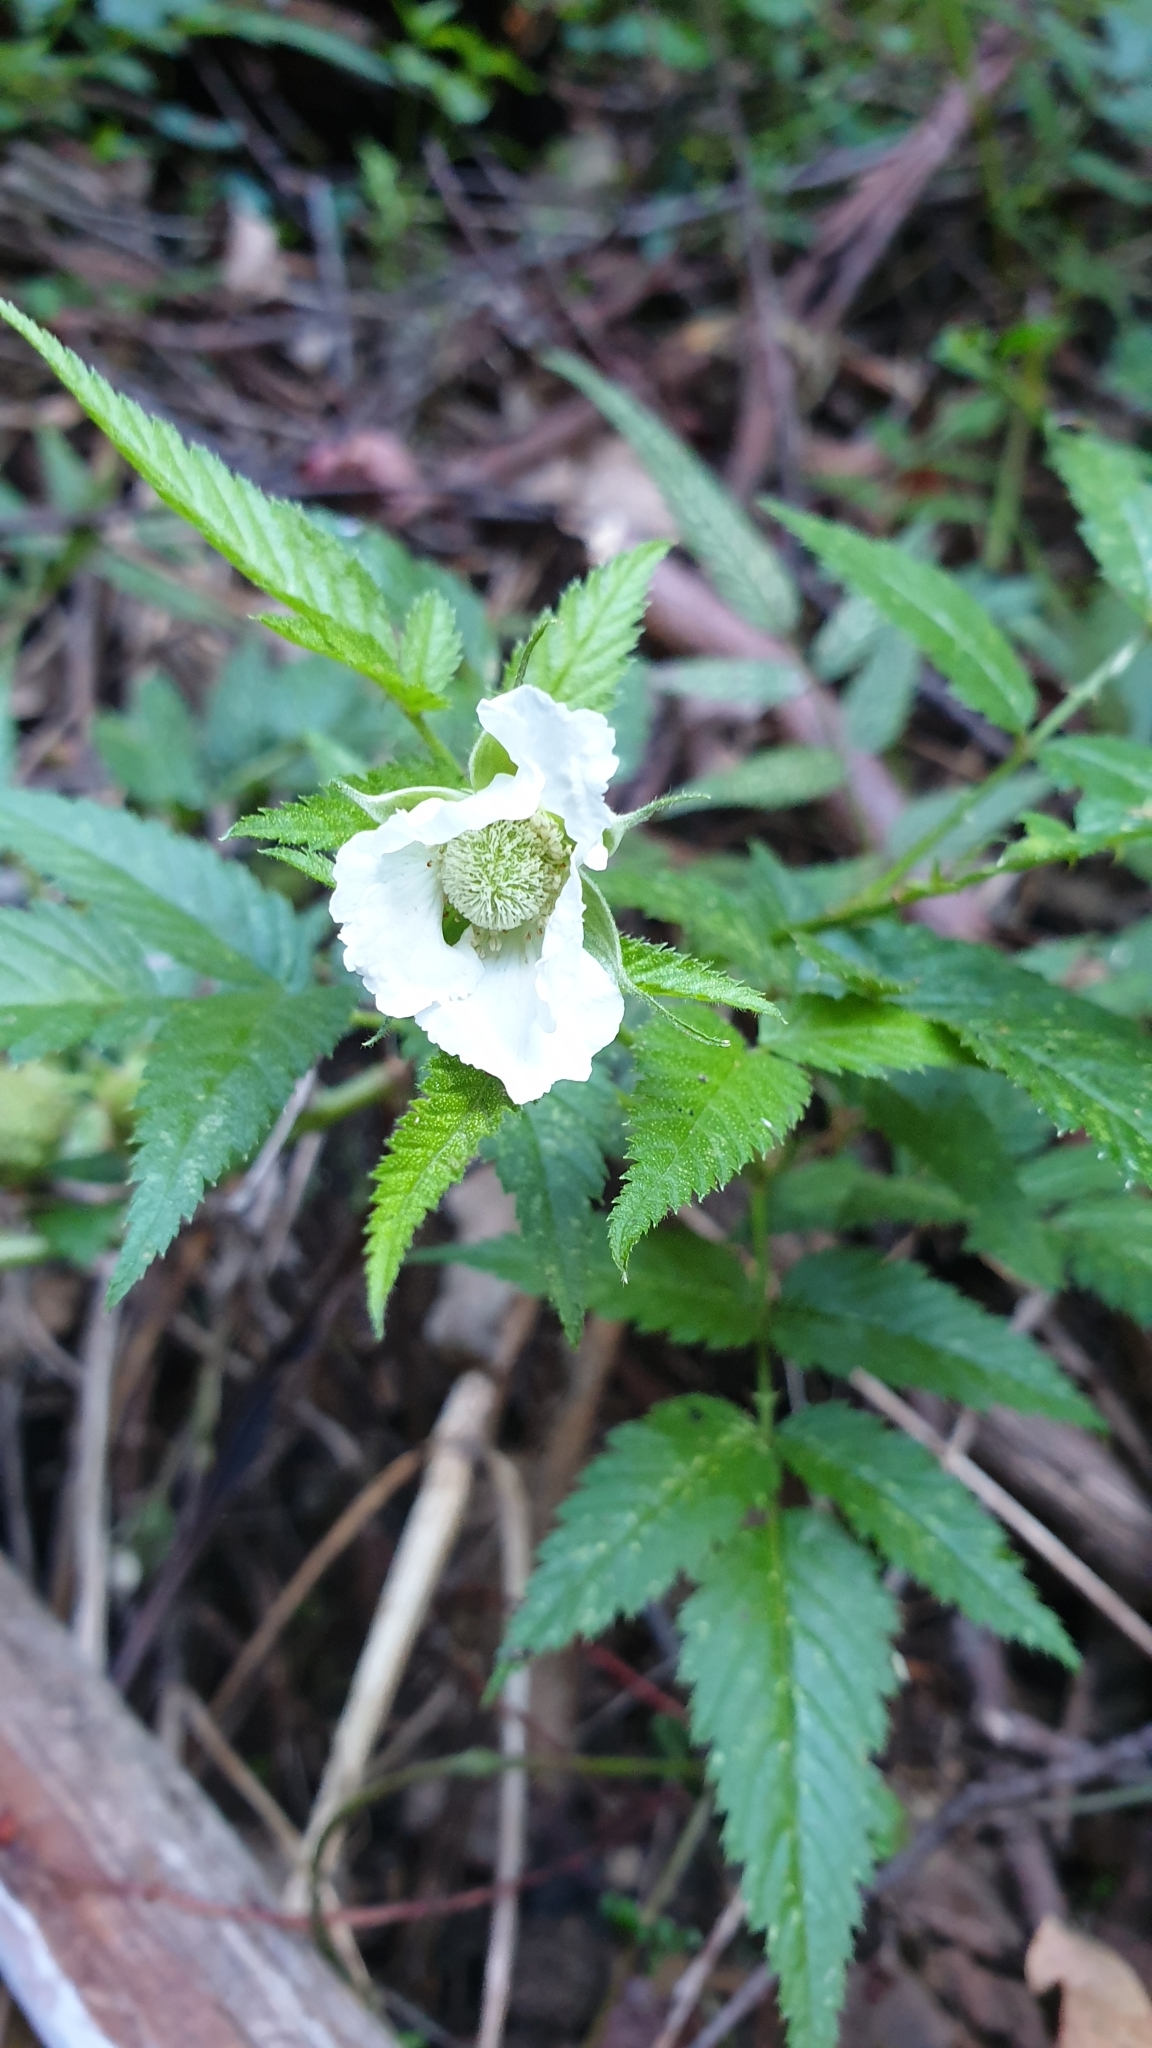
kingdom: Plantae
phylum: Tracheophyta
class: Magnoliopsida
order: Rosales
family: Rosaceae
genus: Rubus
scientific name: Rubus rosifolius
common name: Roseleaf raspberry
